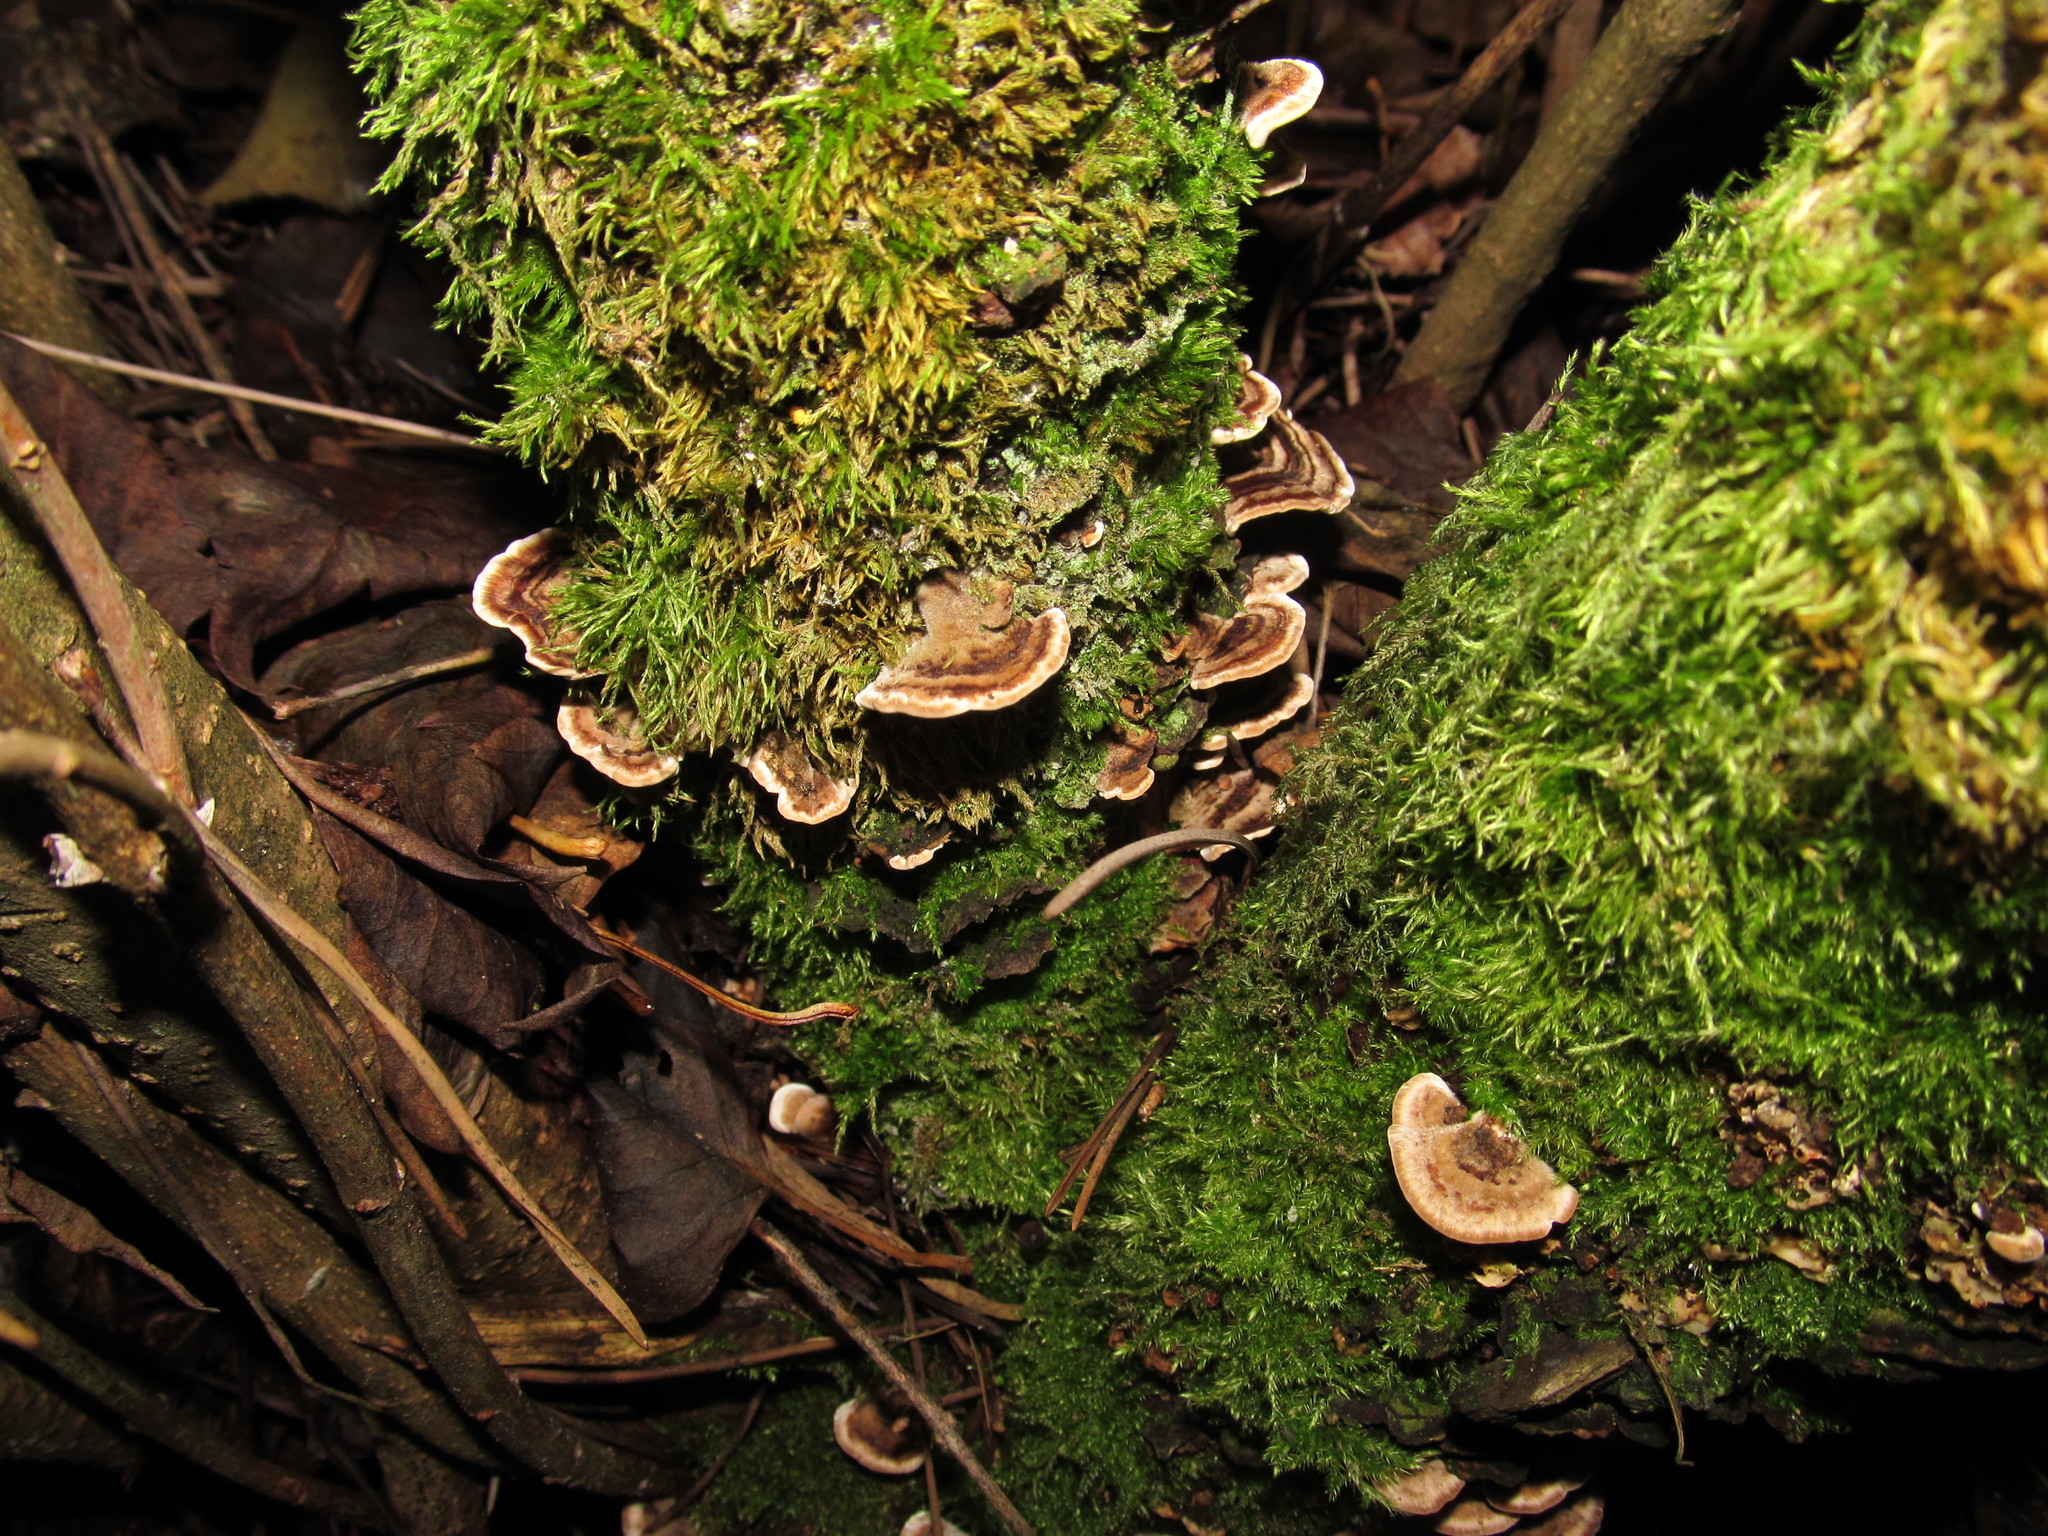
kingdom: Fungi
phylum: Basidiomycota
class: Agaricomycetes
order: Polyporales
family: Polyporaceae
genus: Trametes
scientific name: Trametes versicolor
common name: Turkeytail
